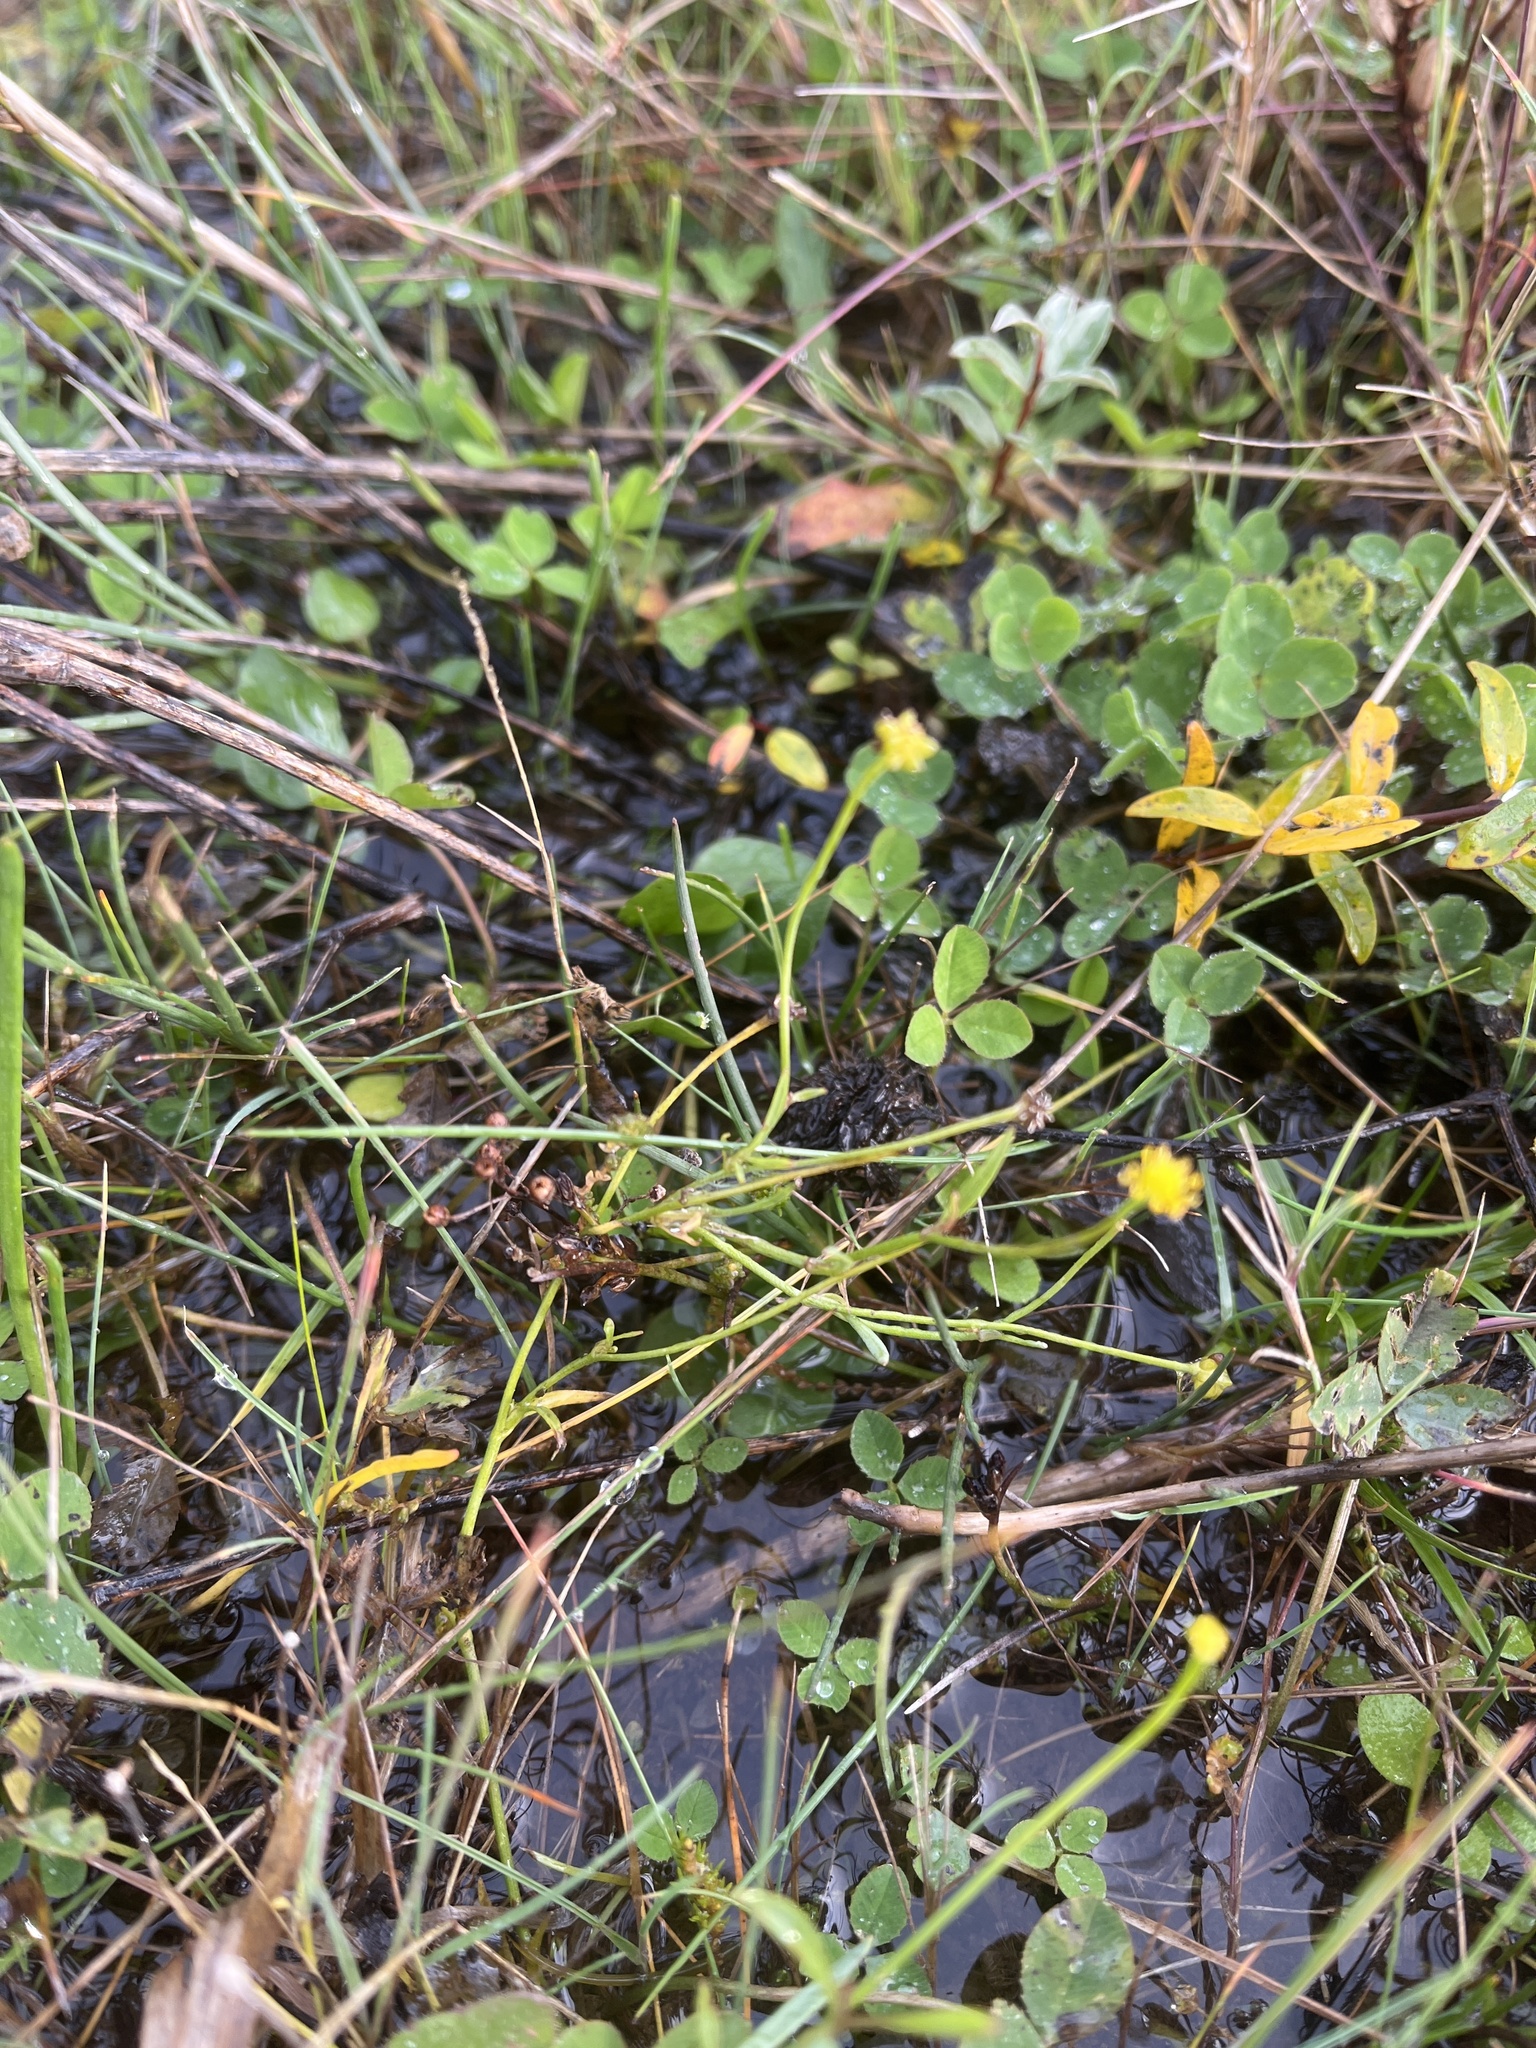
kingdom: Plantae
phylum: Tracheophyta
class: Magnoliopsida
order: Ranunculales
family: Ranunculaceae
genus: Ranunculus
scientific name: Ranunculus flammula
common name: Lesser spearwort
